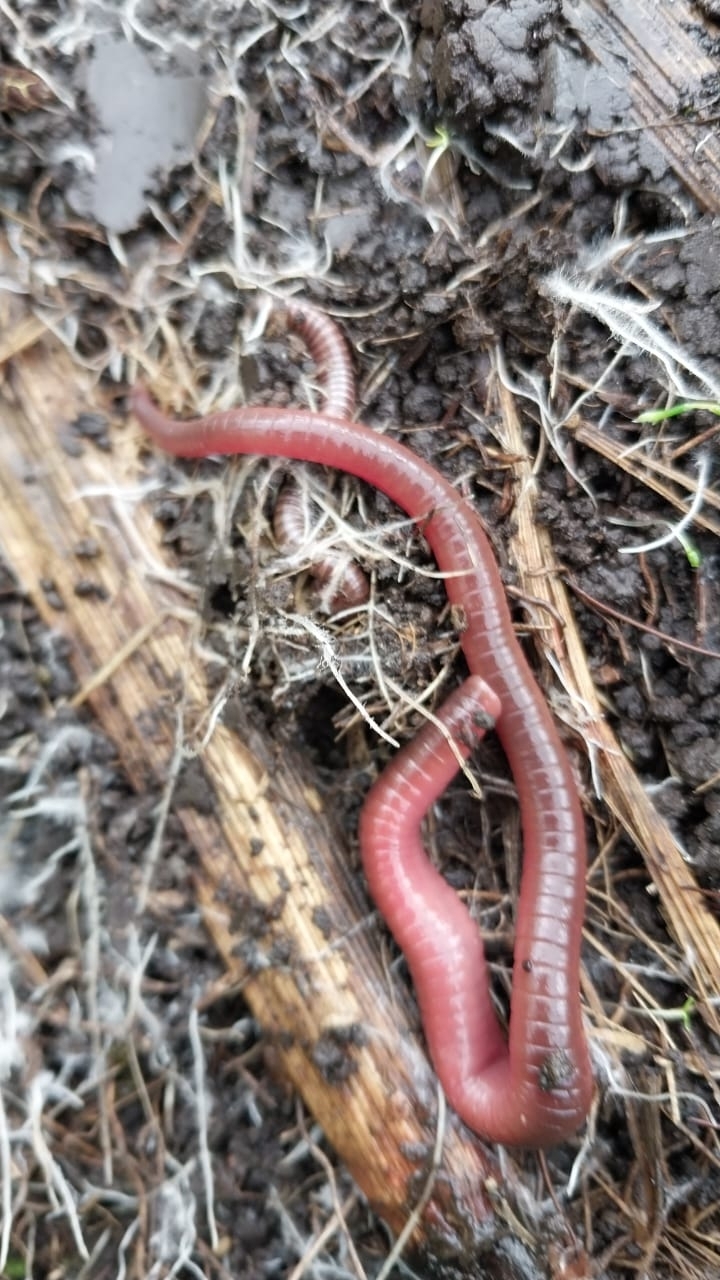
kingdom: Animalia
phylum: Annelida
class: Clitellata
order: Crassiclitellata
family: Lumbricidae
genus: Eisenia
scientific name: Eisenia fetida
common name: Red wiggler
